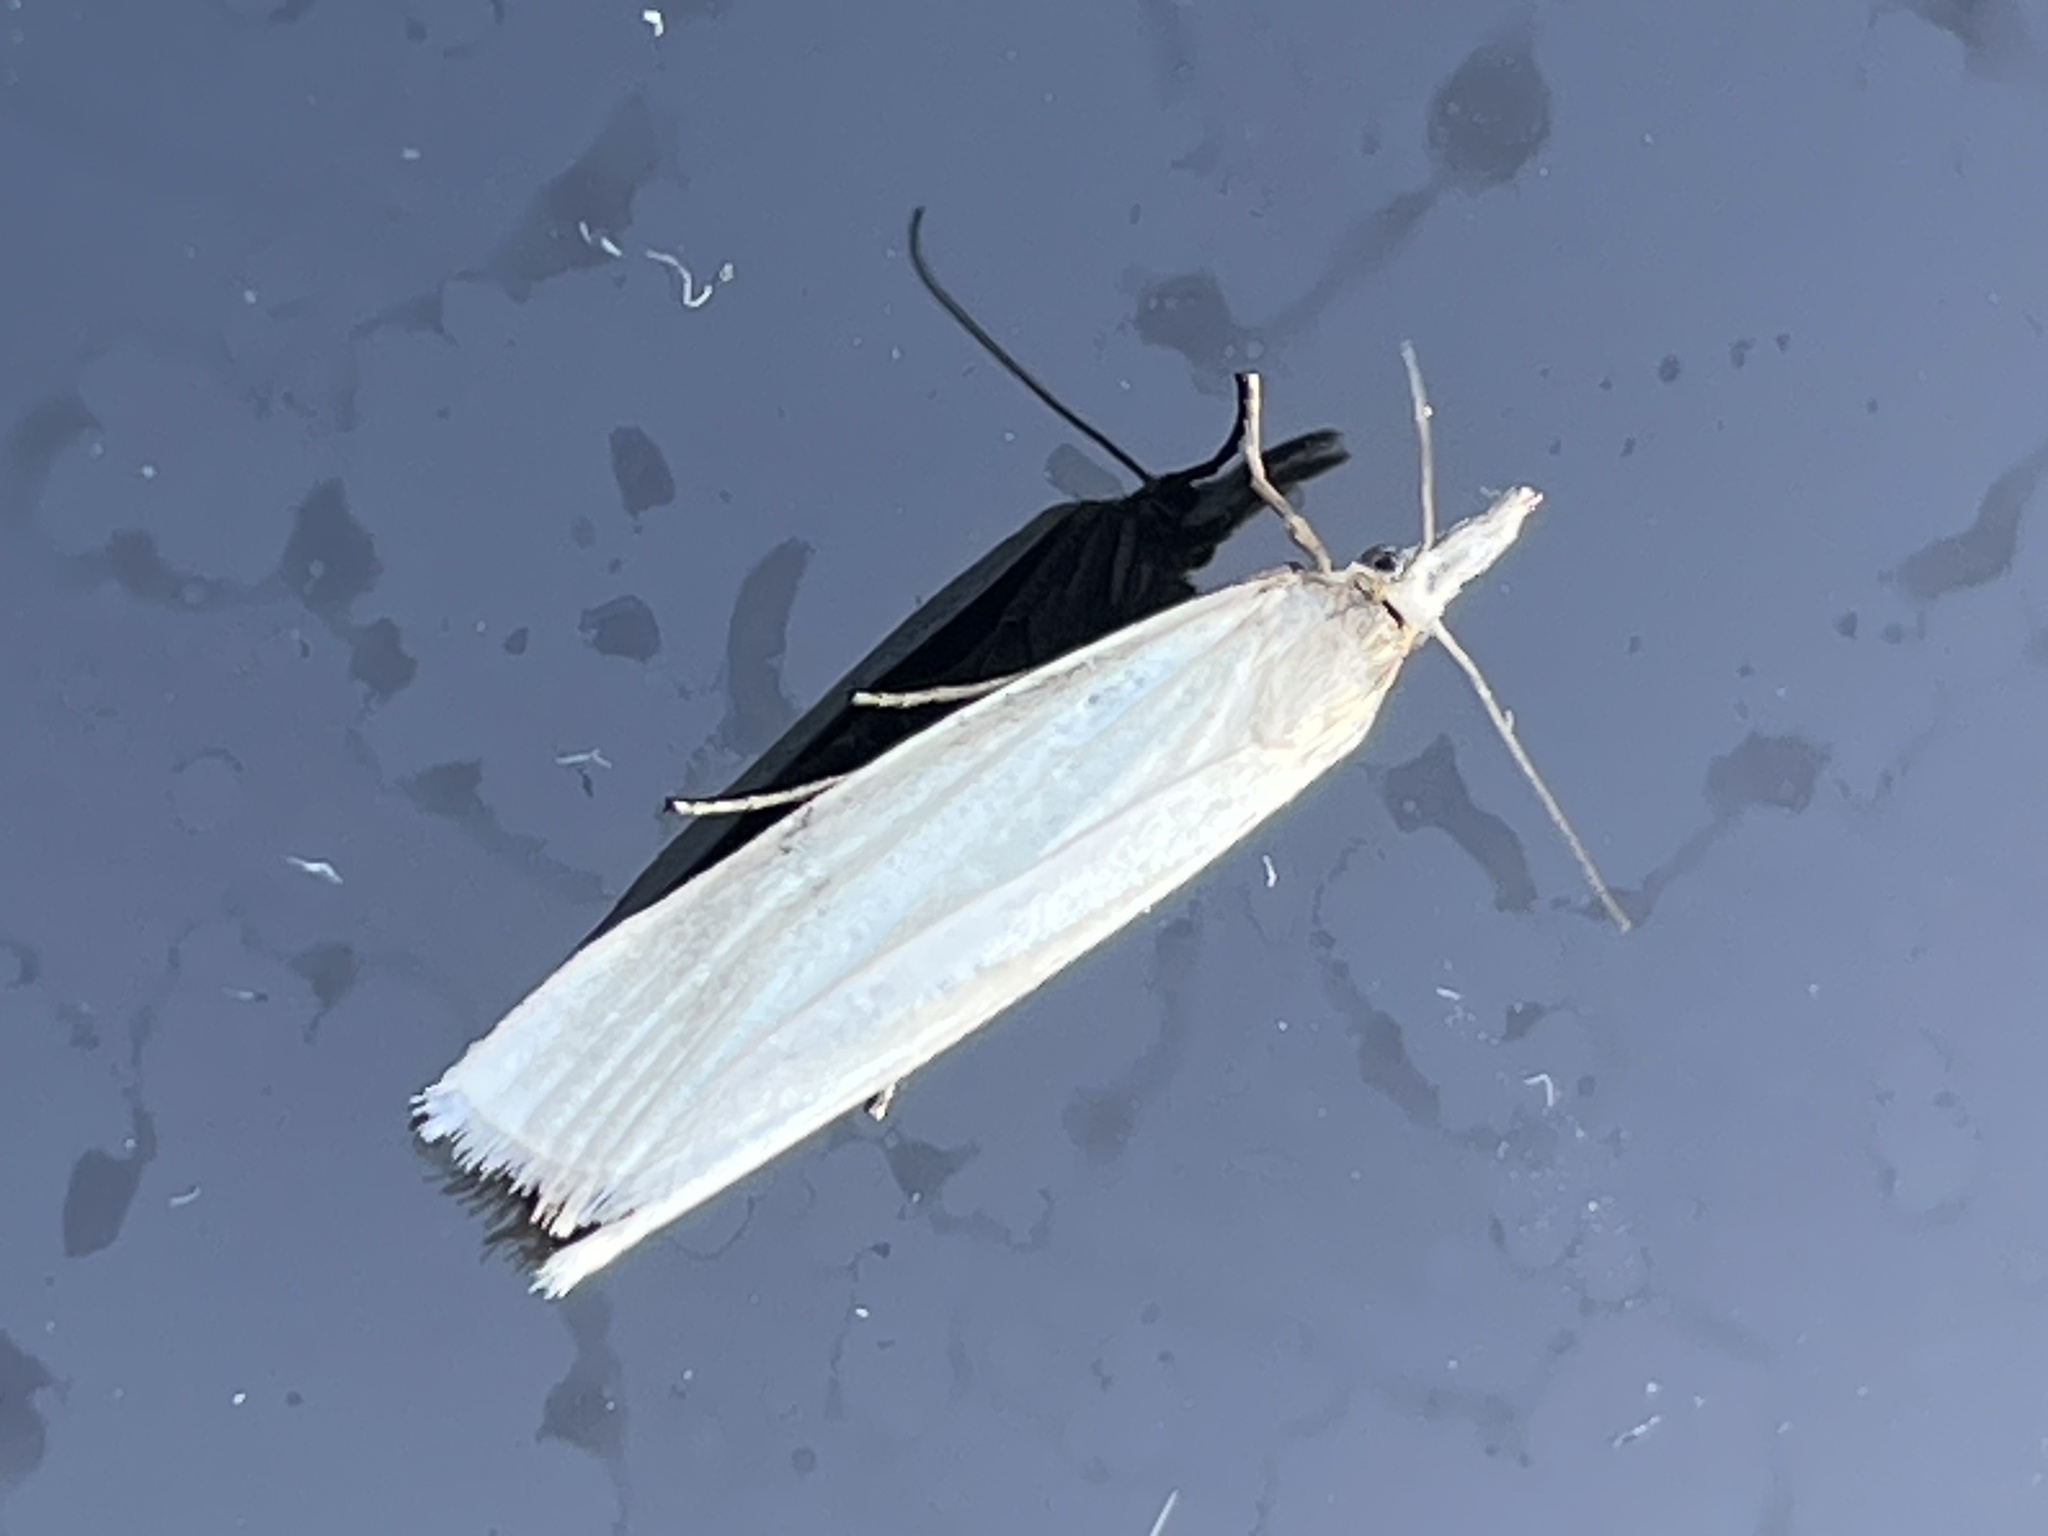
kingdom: Animalia
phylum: Arthropoda
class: Insecta
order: Lepidoptera
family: Crambidae
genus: Crambus
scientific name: Crambus perlellus
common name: Yellow satin veneer
